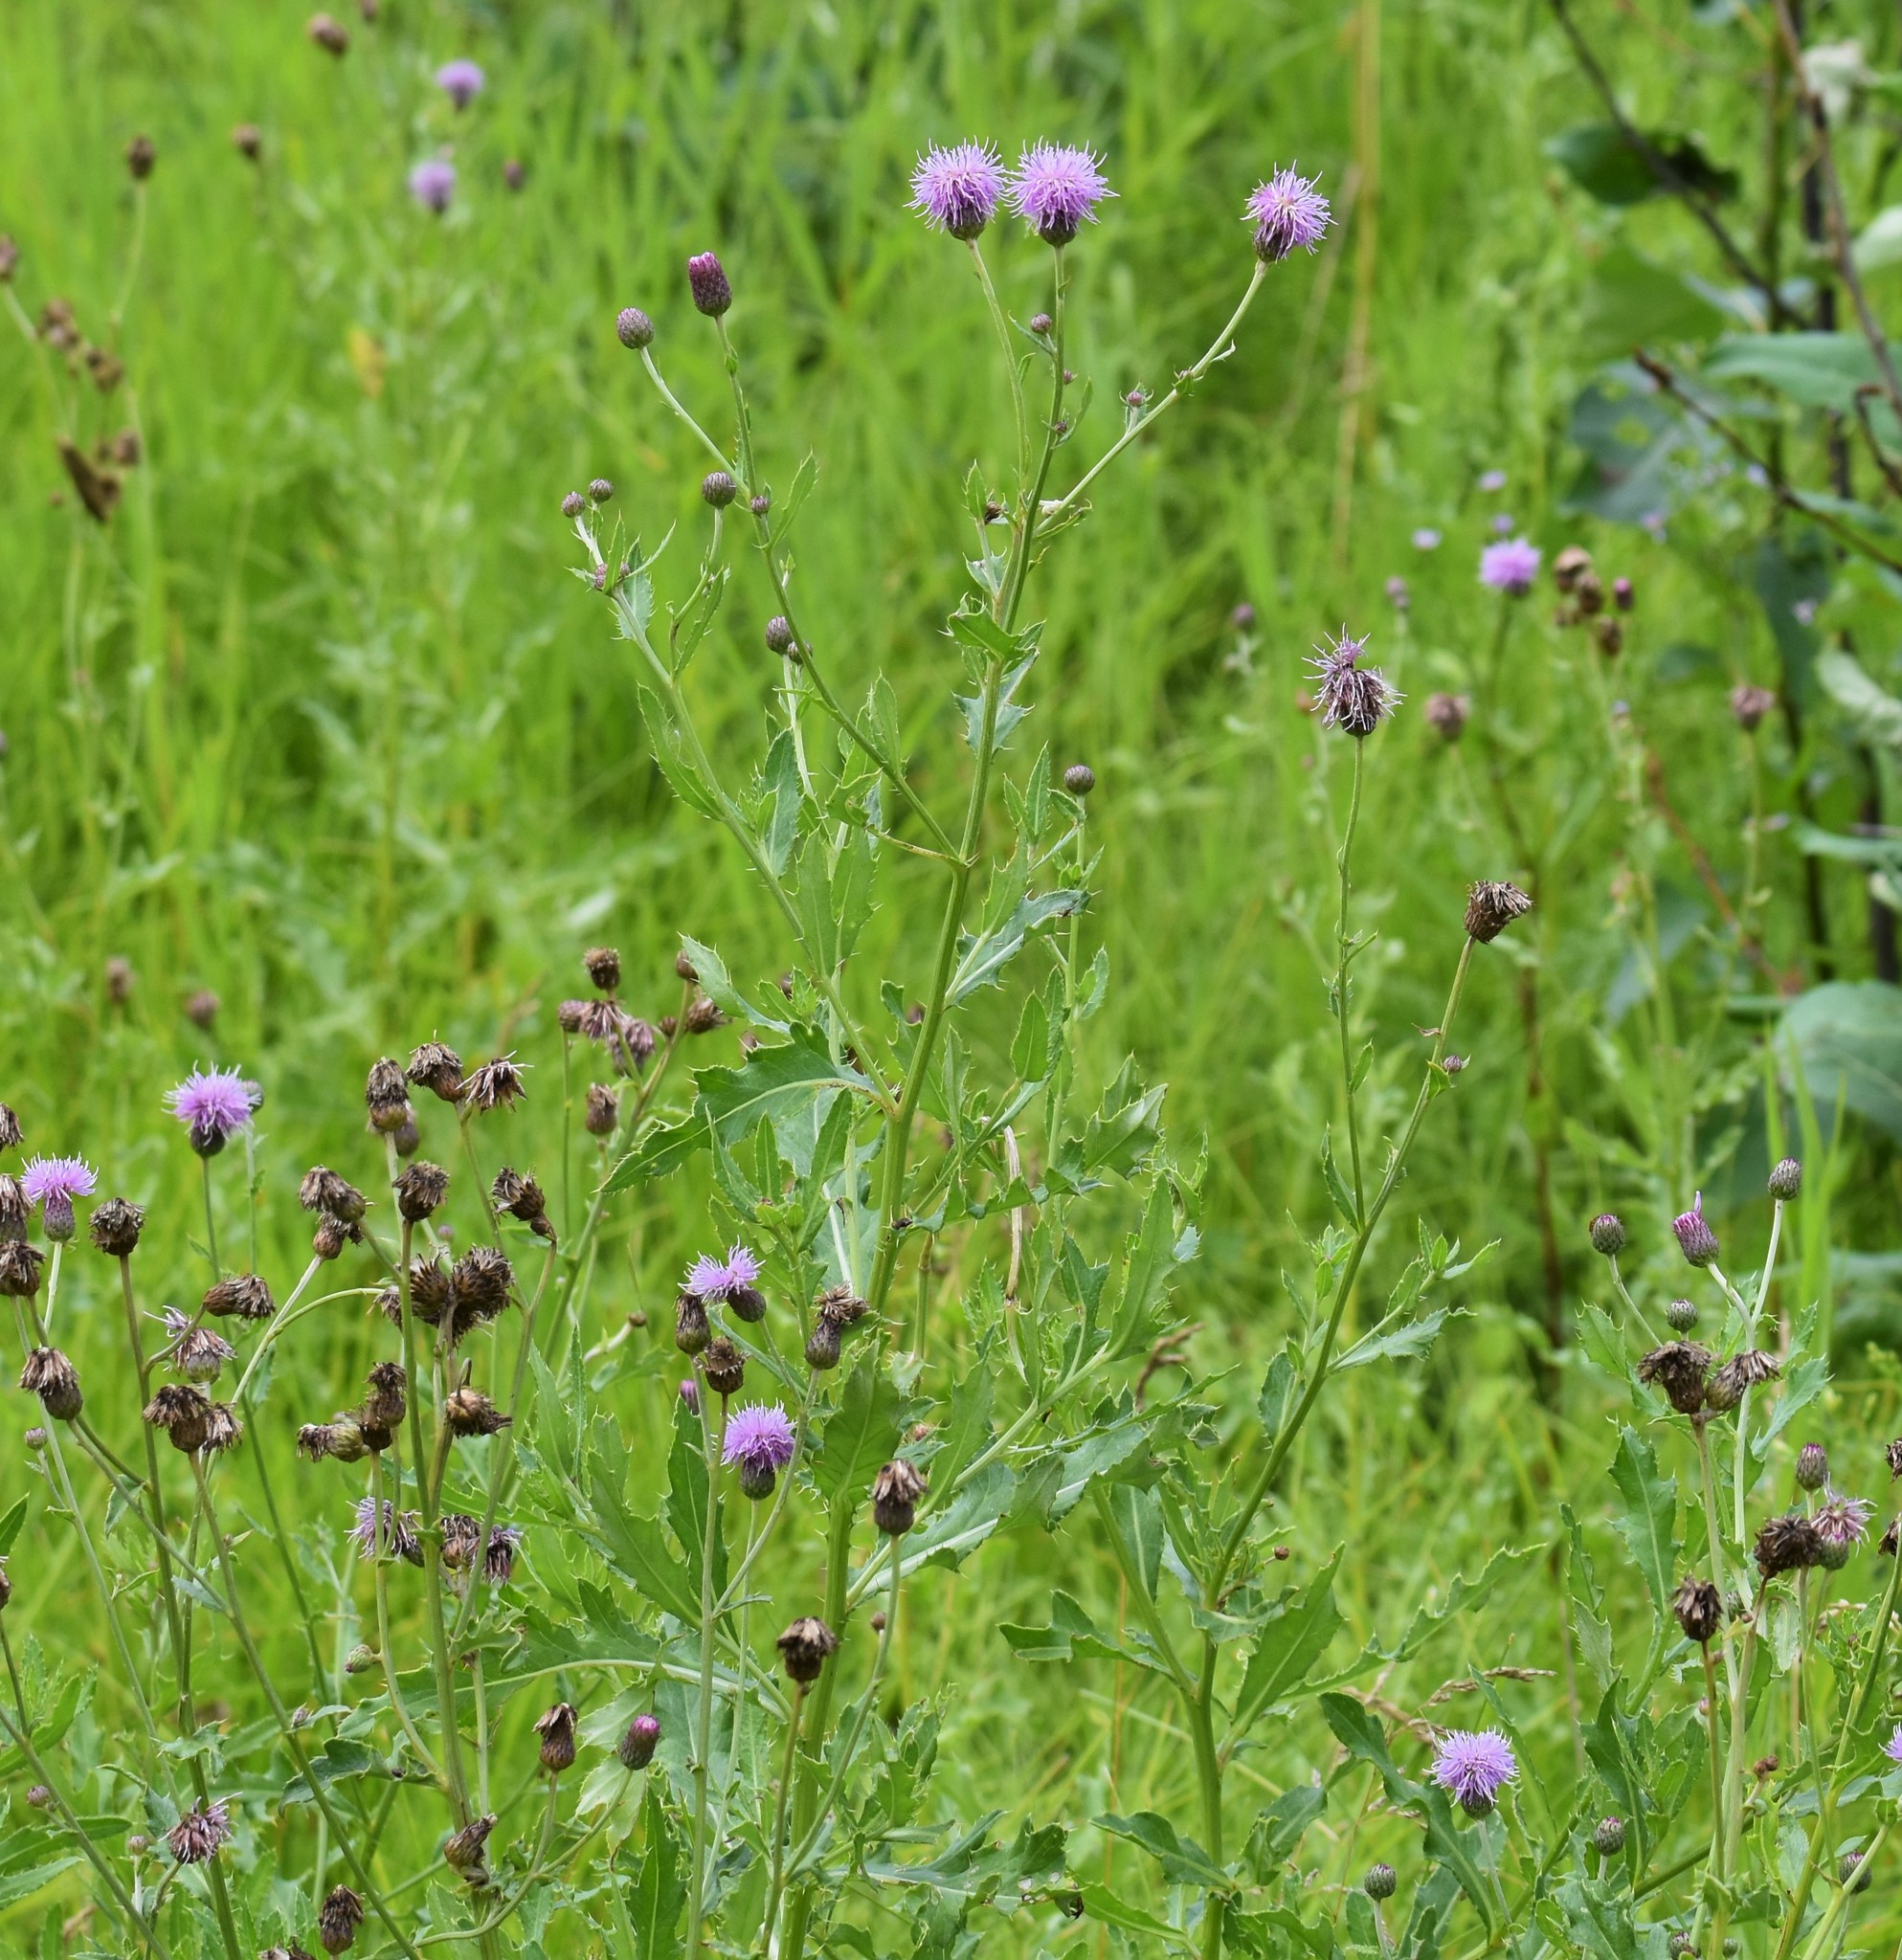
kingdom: Plantae
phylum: Tracheophyta
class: Magnoliopsida
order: Asterales
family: Asteraceae
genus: Cirsium
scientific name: Cirsium arvense
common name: Creeping thistle
